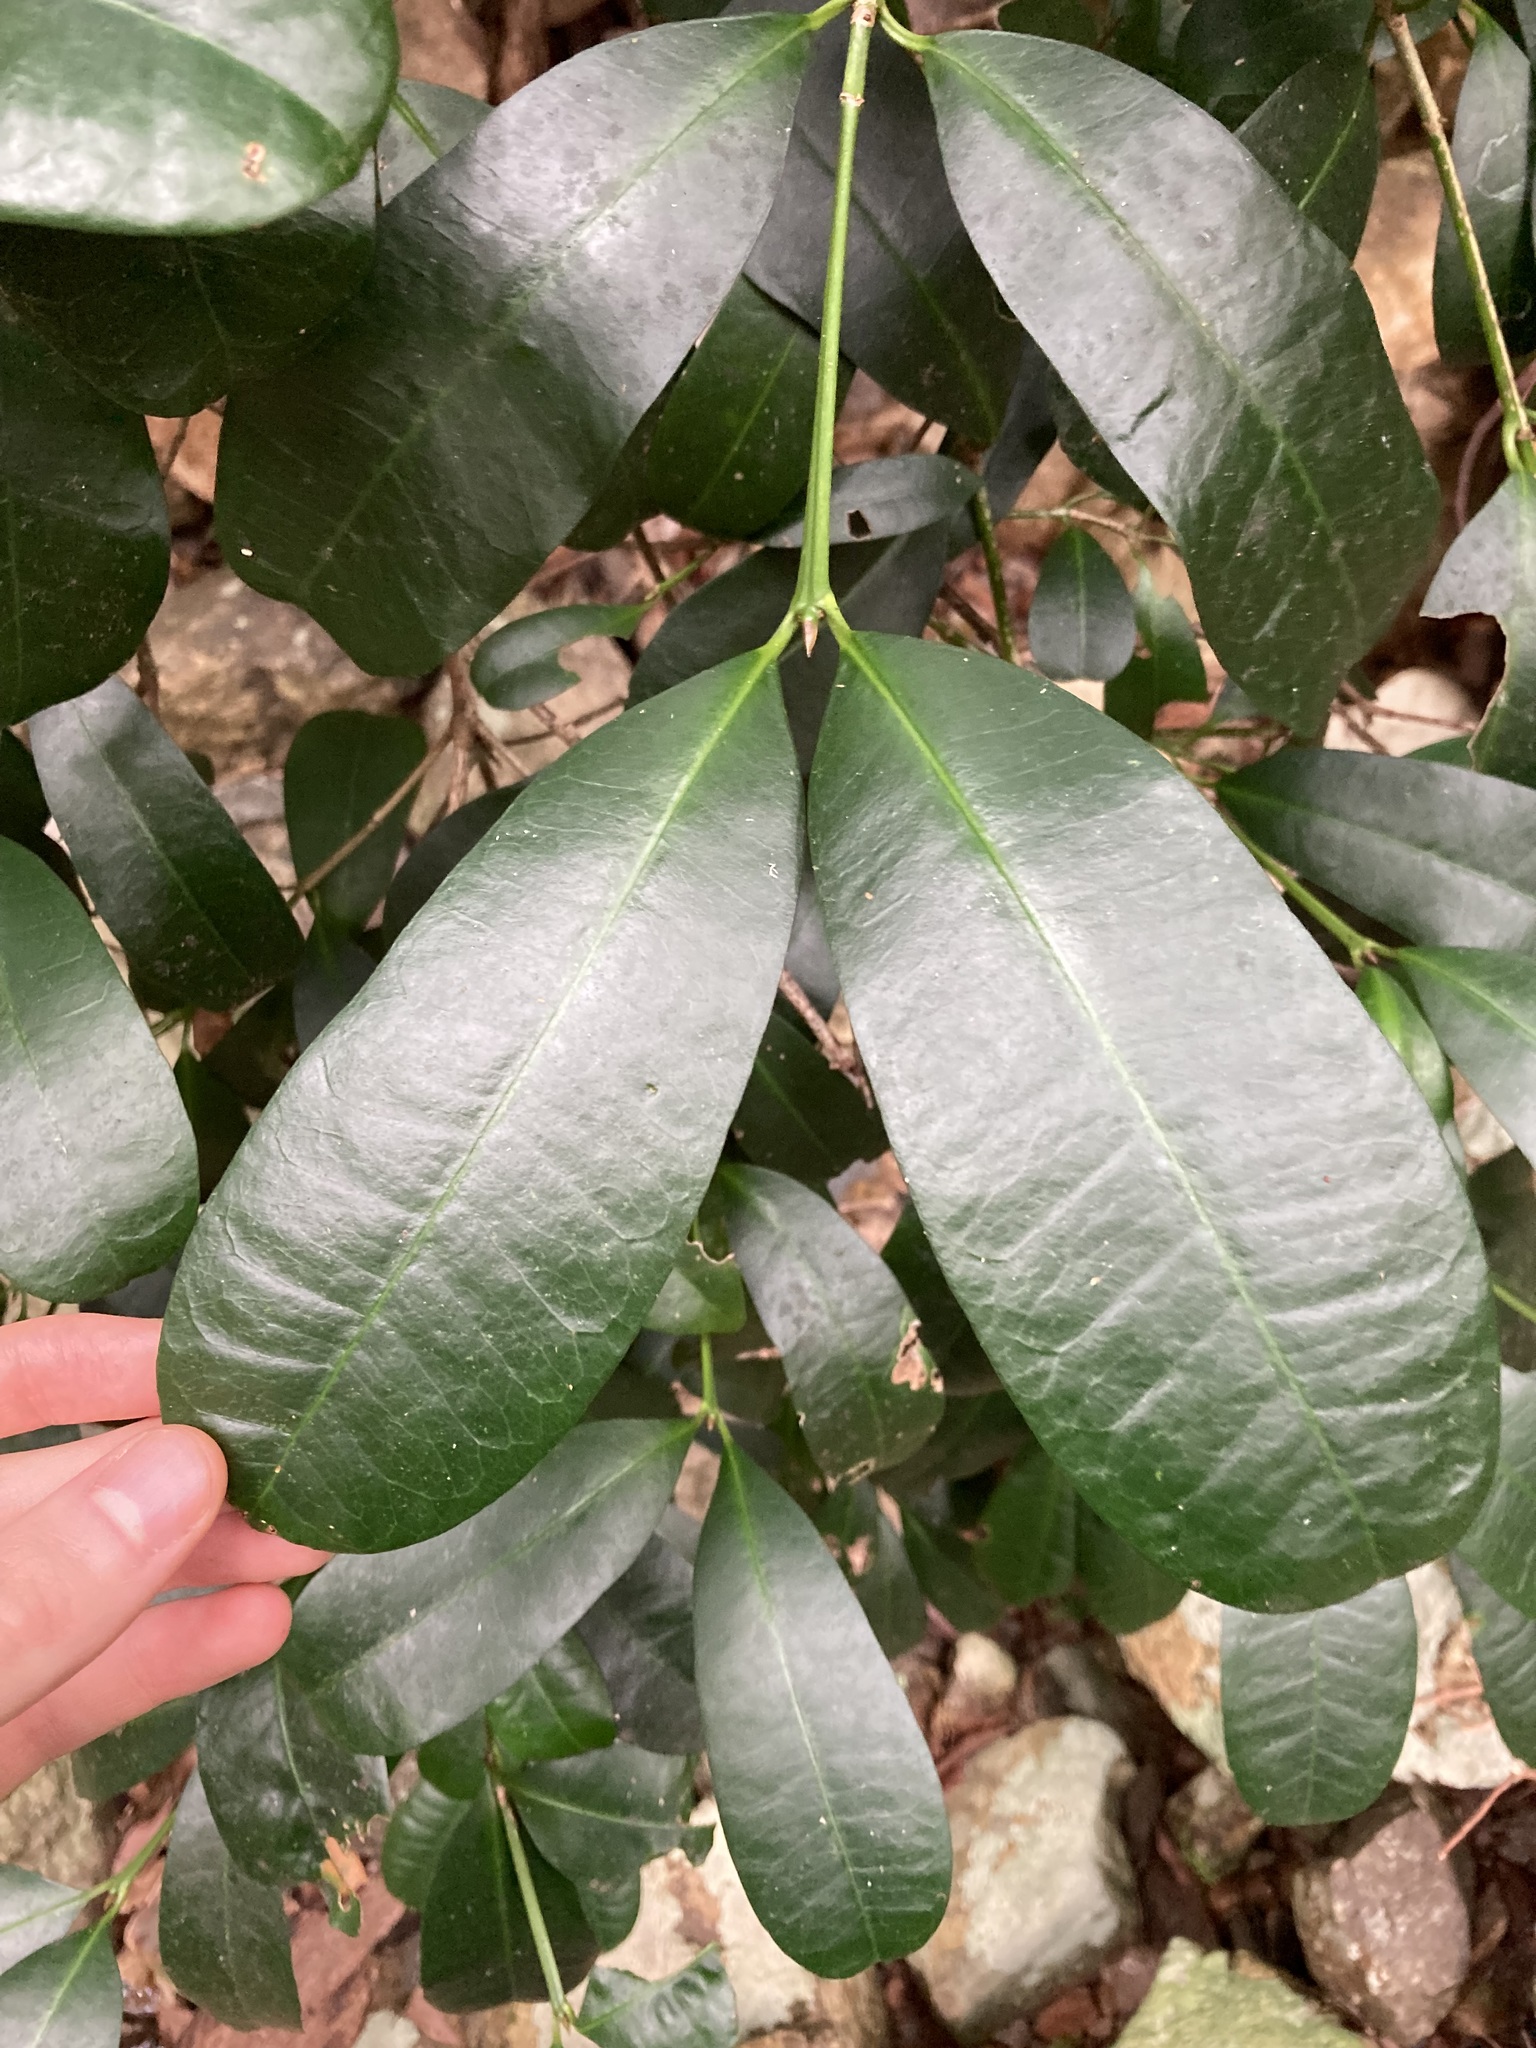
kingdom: Plantae
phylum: Tracheophyta
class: Magnoliopsida
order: Malpighiales
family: Euphorbiaceae
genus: Baloghia
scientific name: Baloghia inophylla
